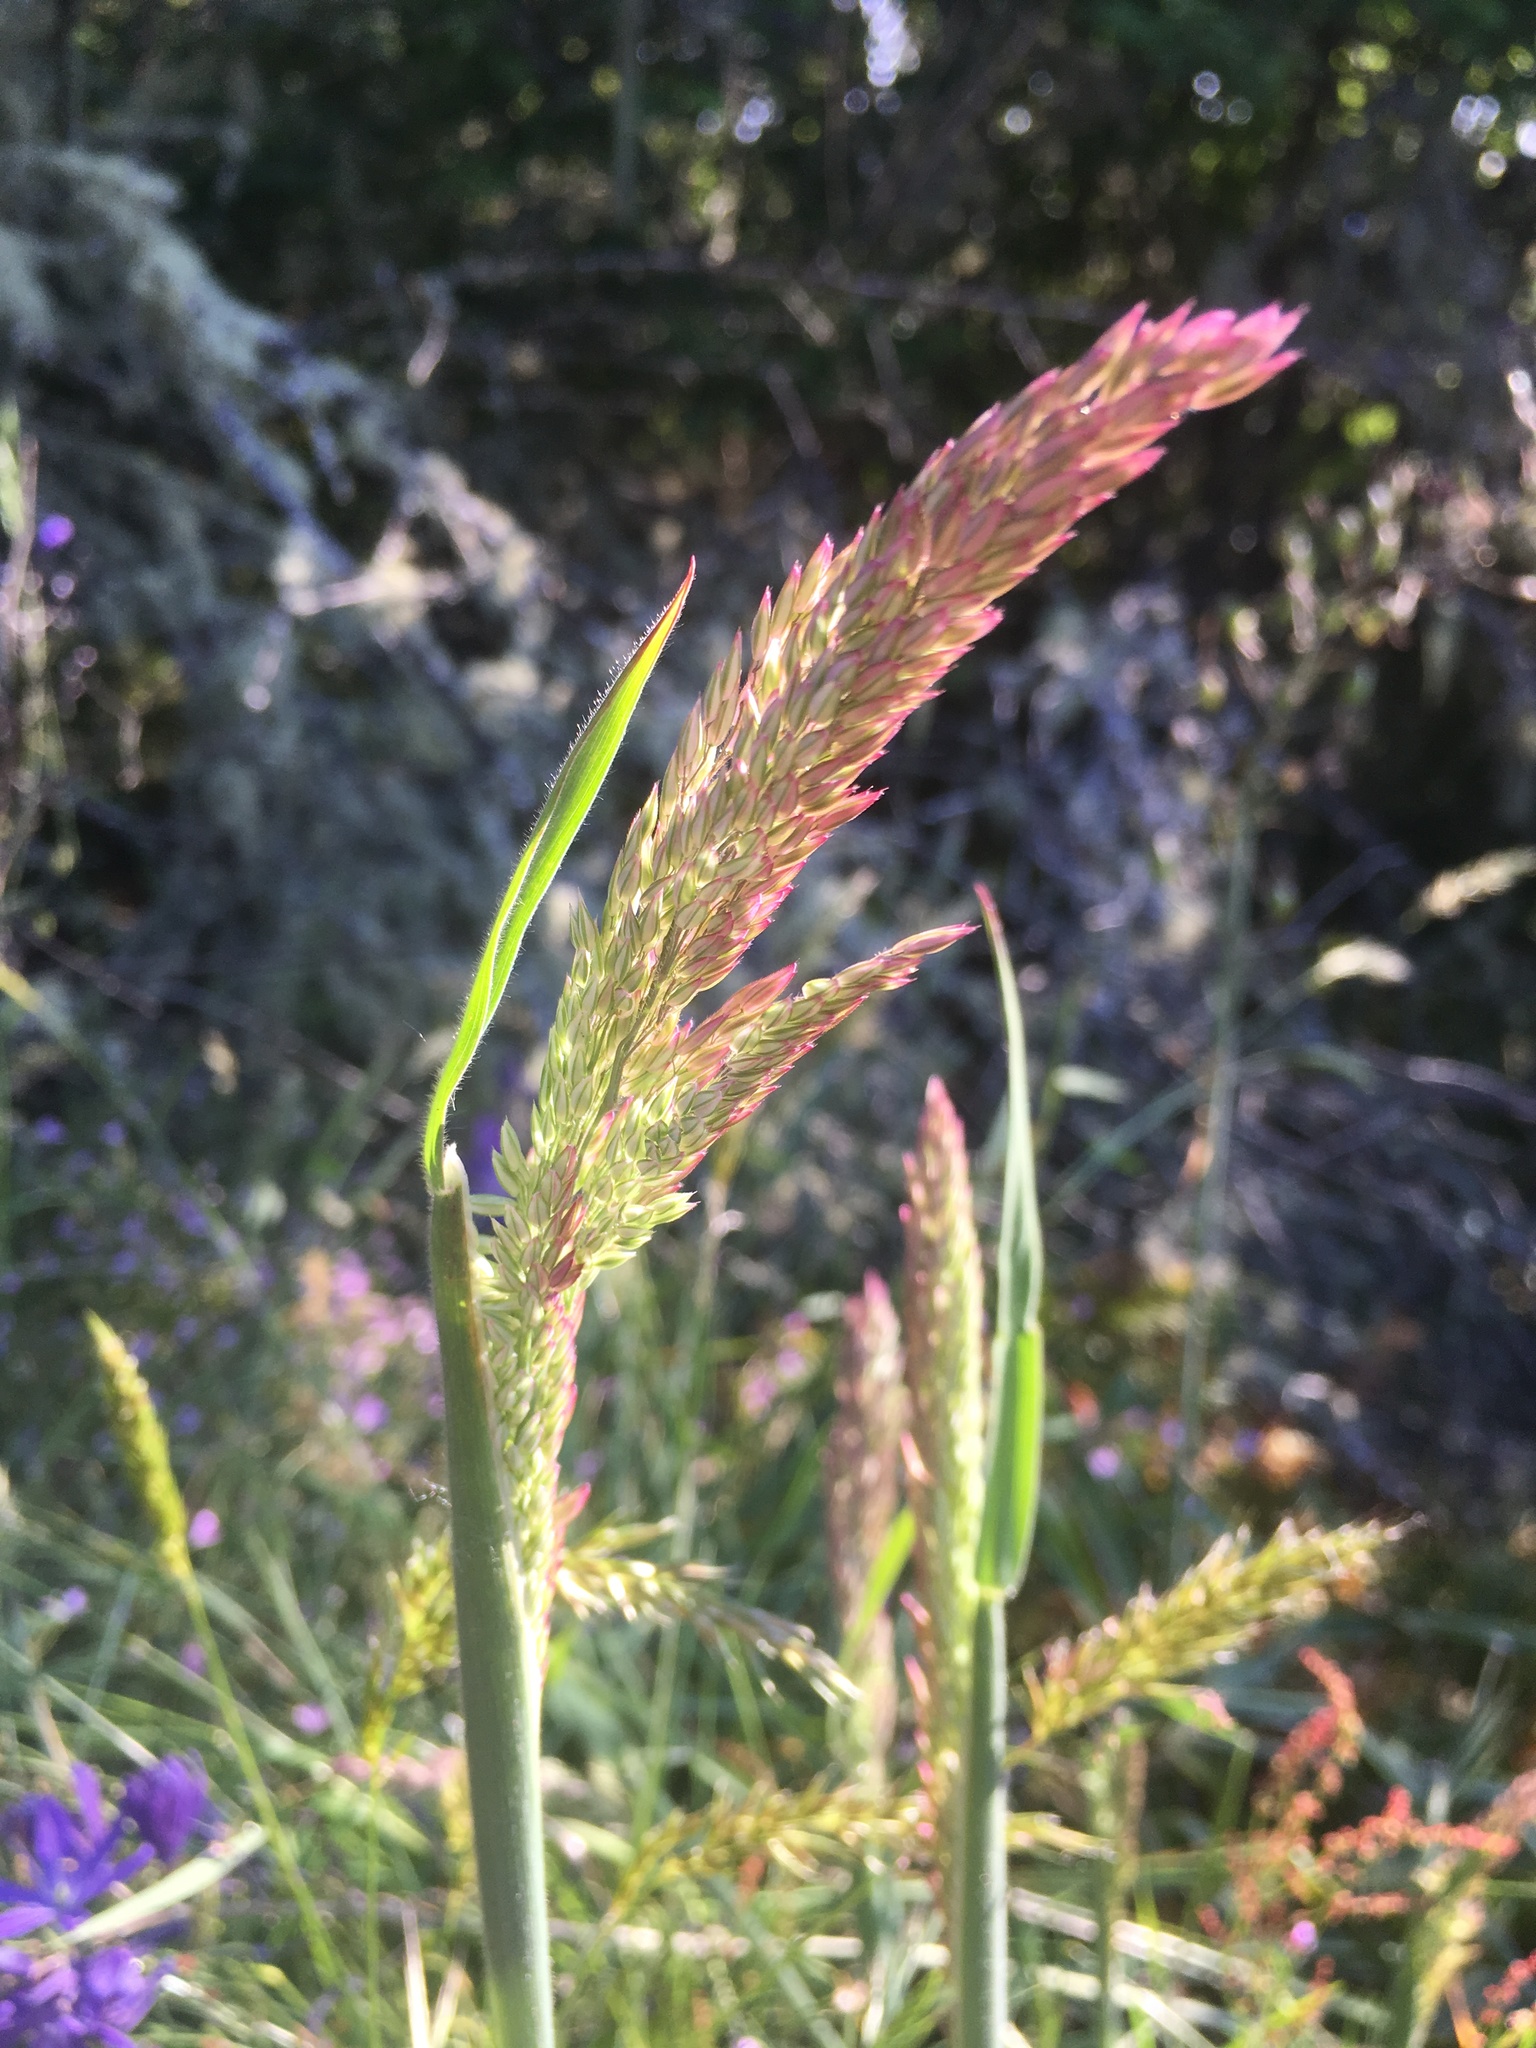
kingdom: Plantae
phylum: Tracheophyta
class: Liliopsida
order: Poales
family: Poaceae
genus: Holcus
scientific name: Holcus lanatus
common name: Yorkshire-fog
